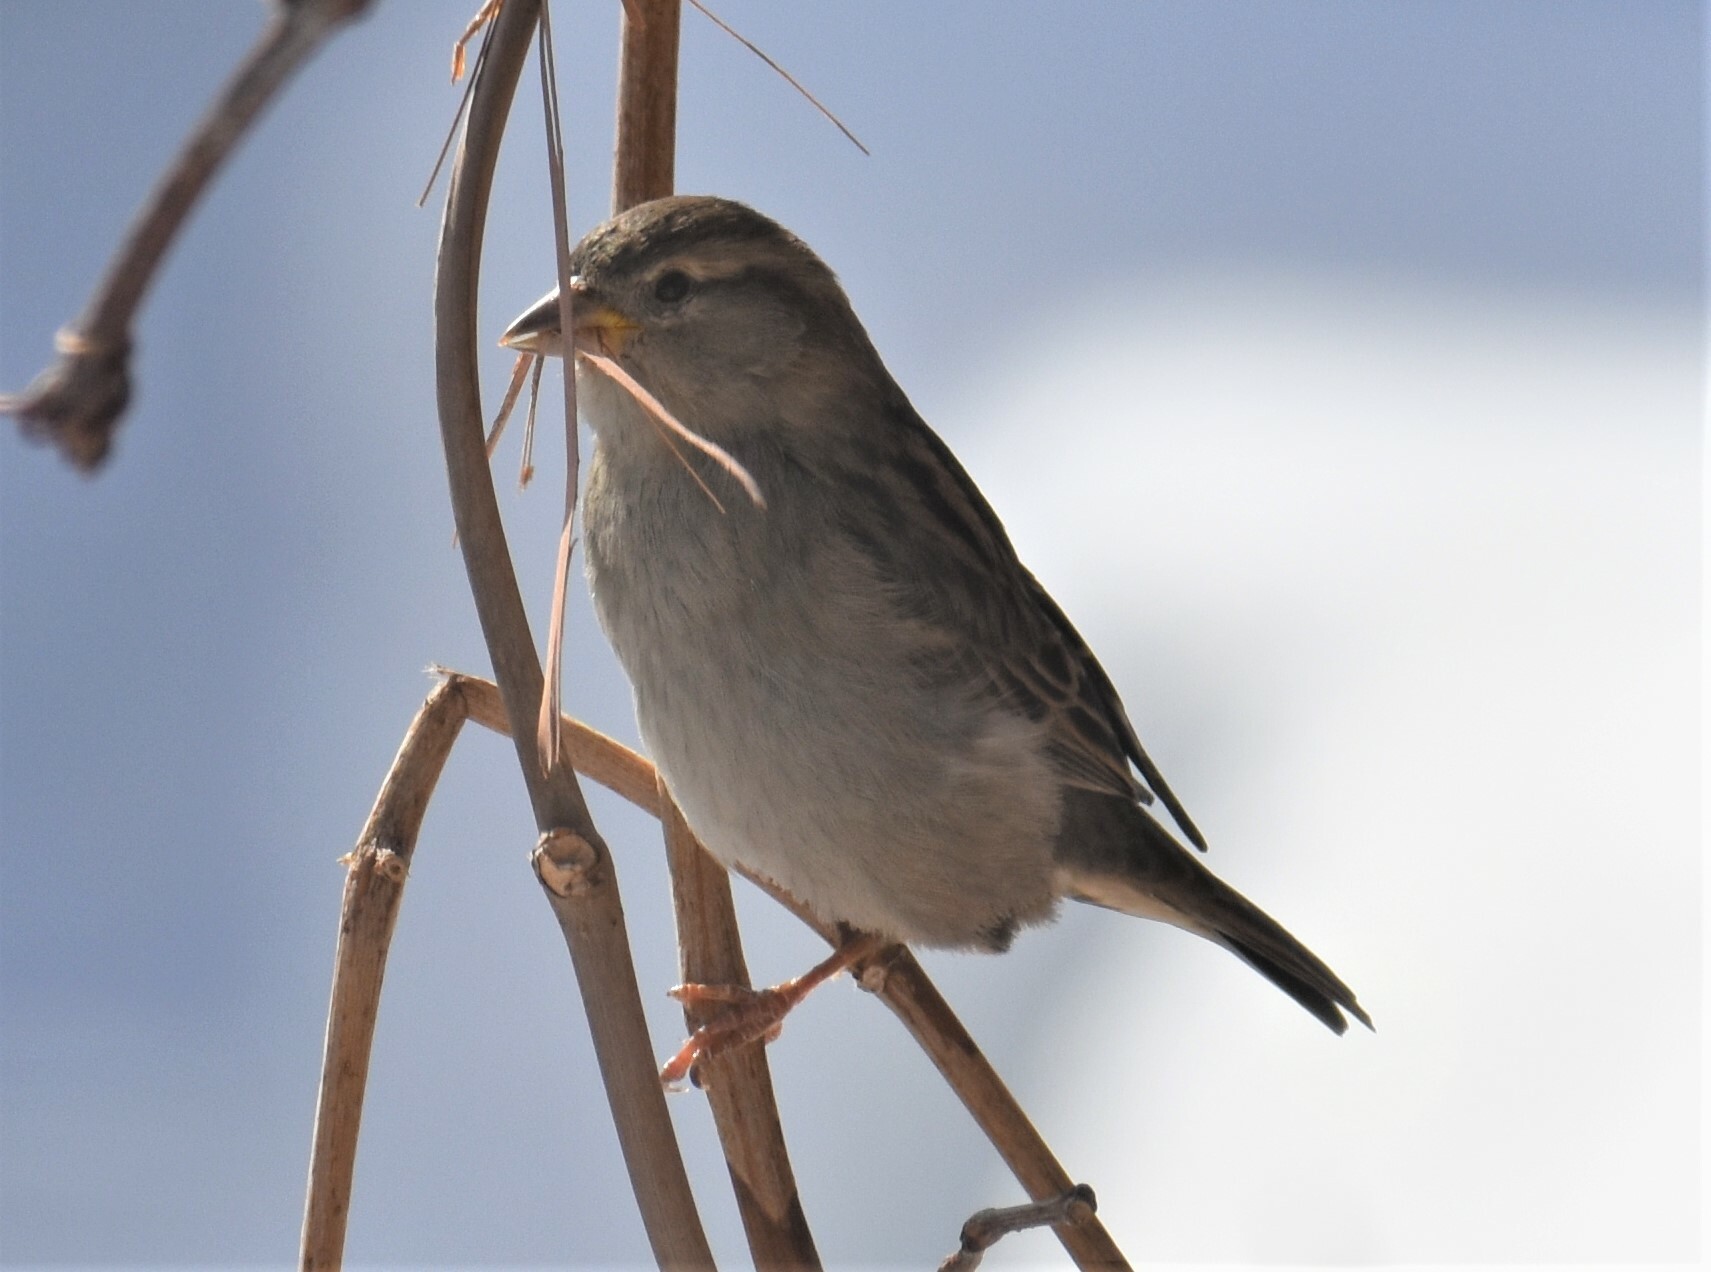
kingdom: Animalia
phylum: Chordata
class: Aves
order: Passeriformes
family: Passeridae
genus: Passer
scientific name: Passer domesticus
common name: House sparrow
